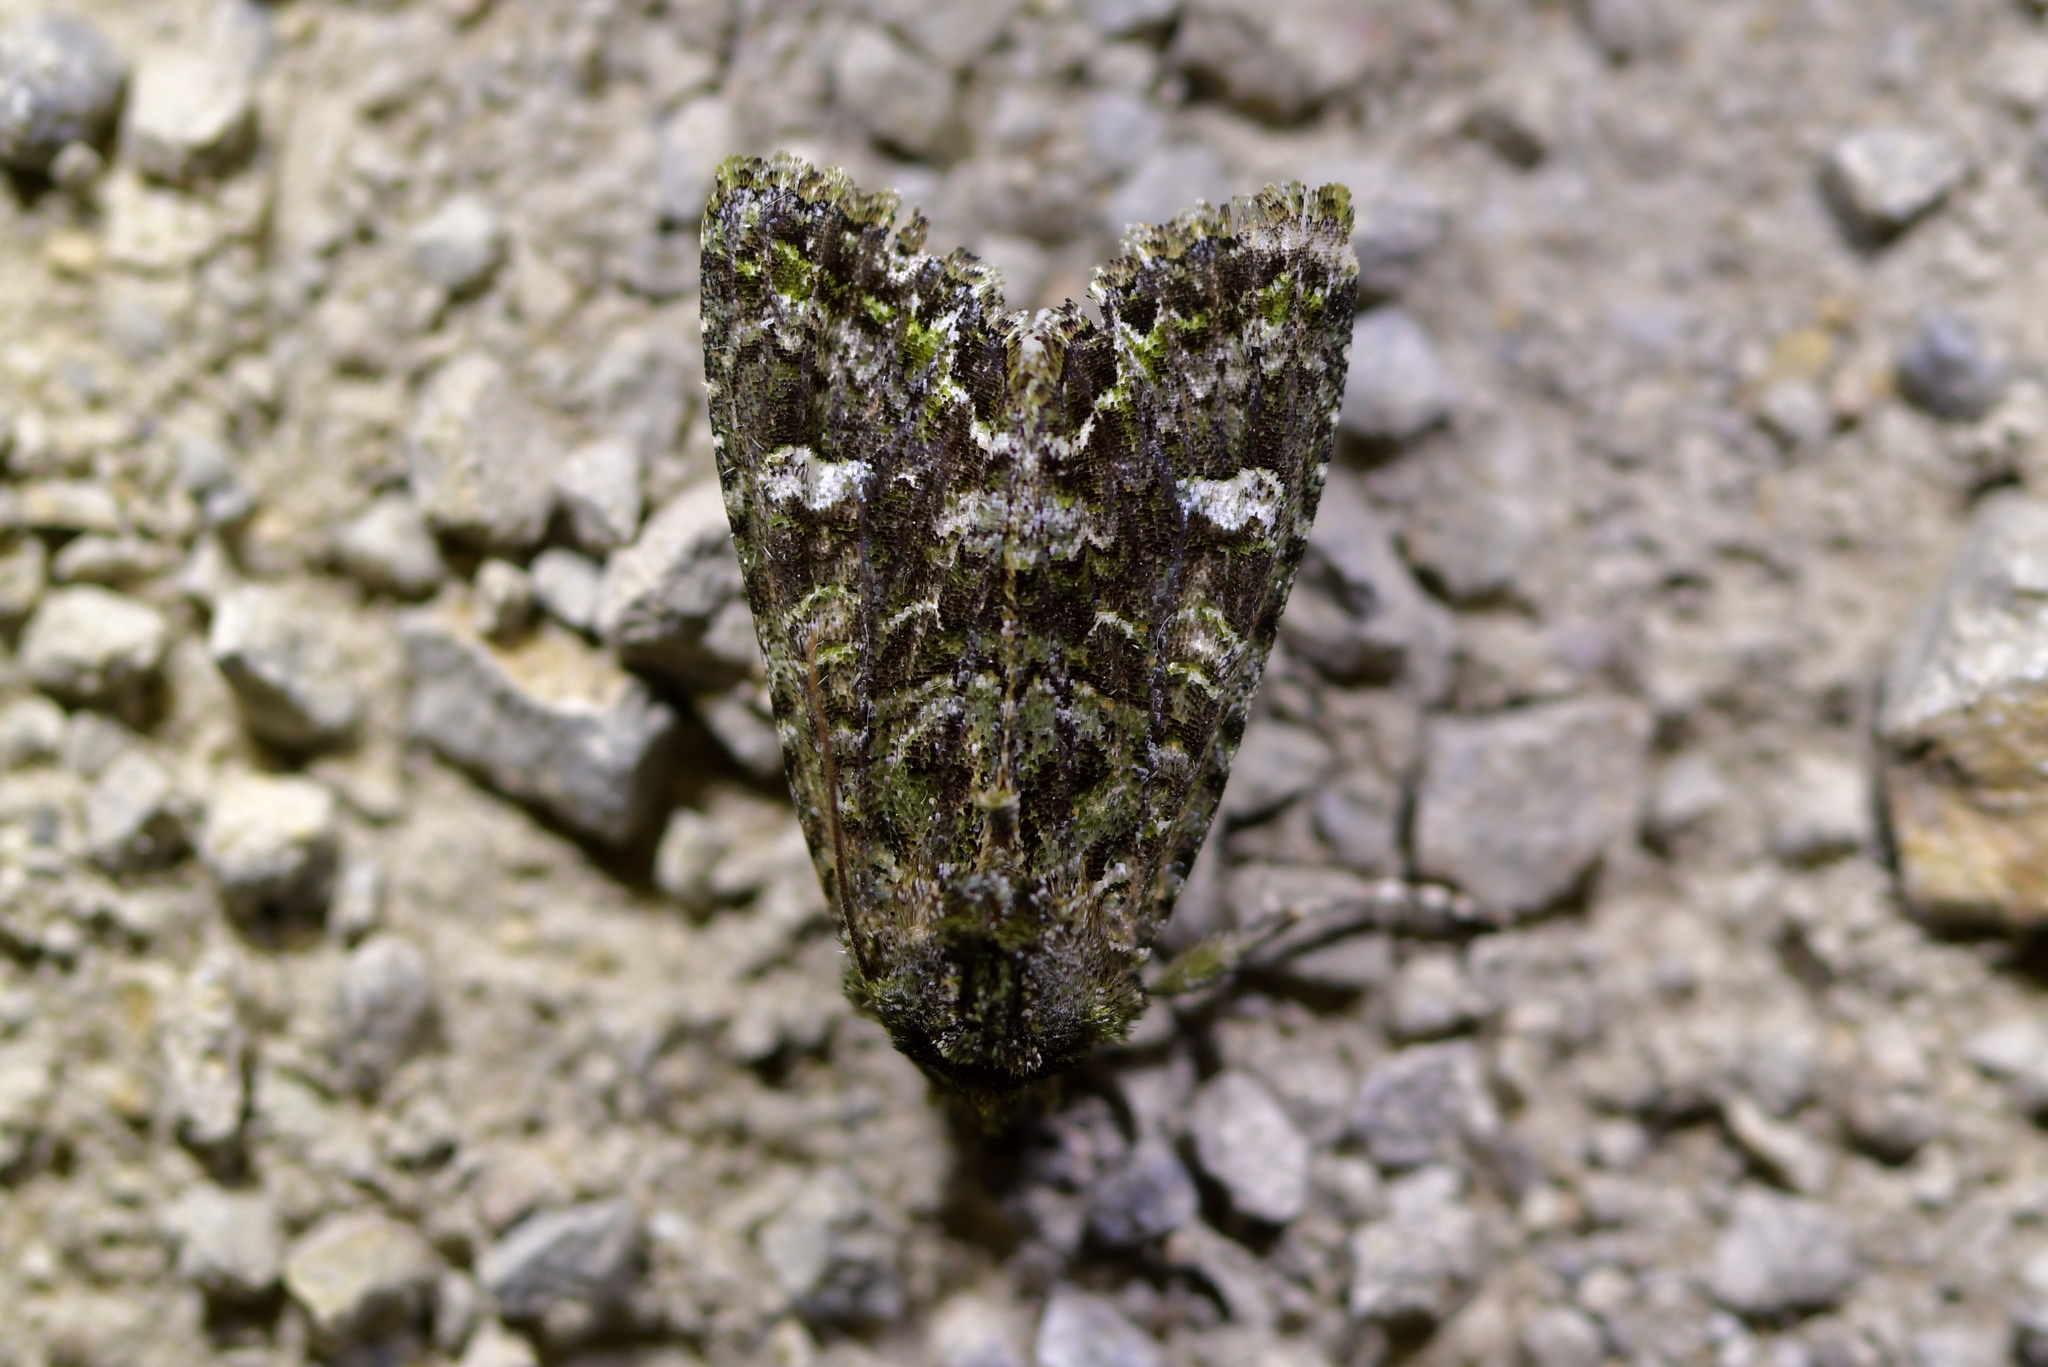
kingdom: Animalia
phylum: Arthropoda
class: Insecta
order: Lepidoptera
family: Noctuidae
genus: Ichneutica
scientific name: Ichneutica
